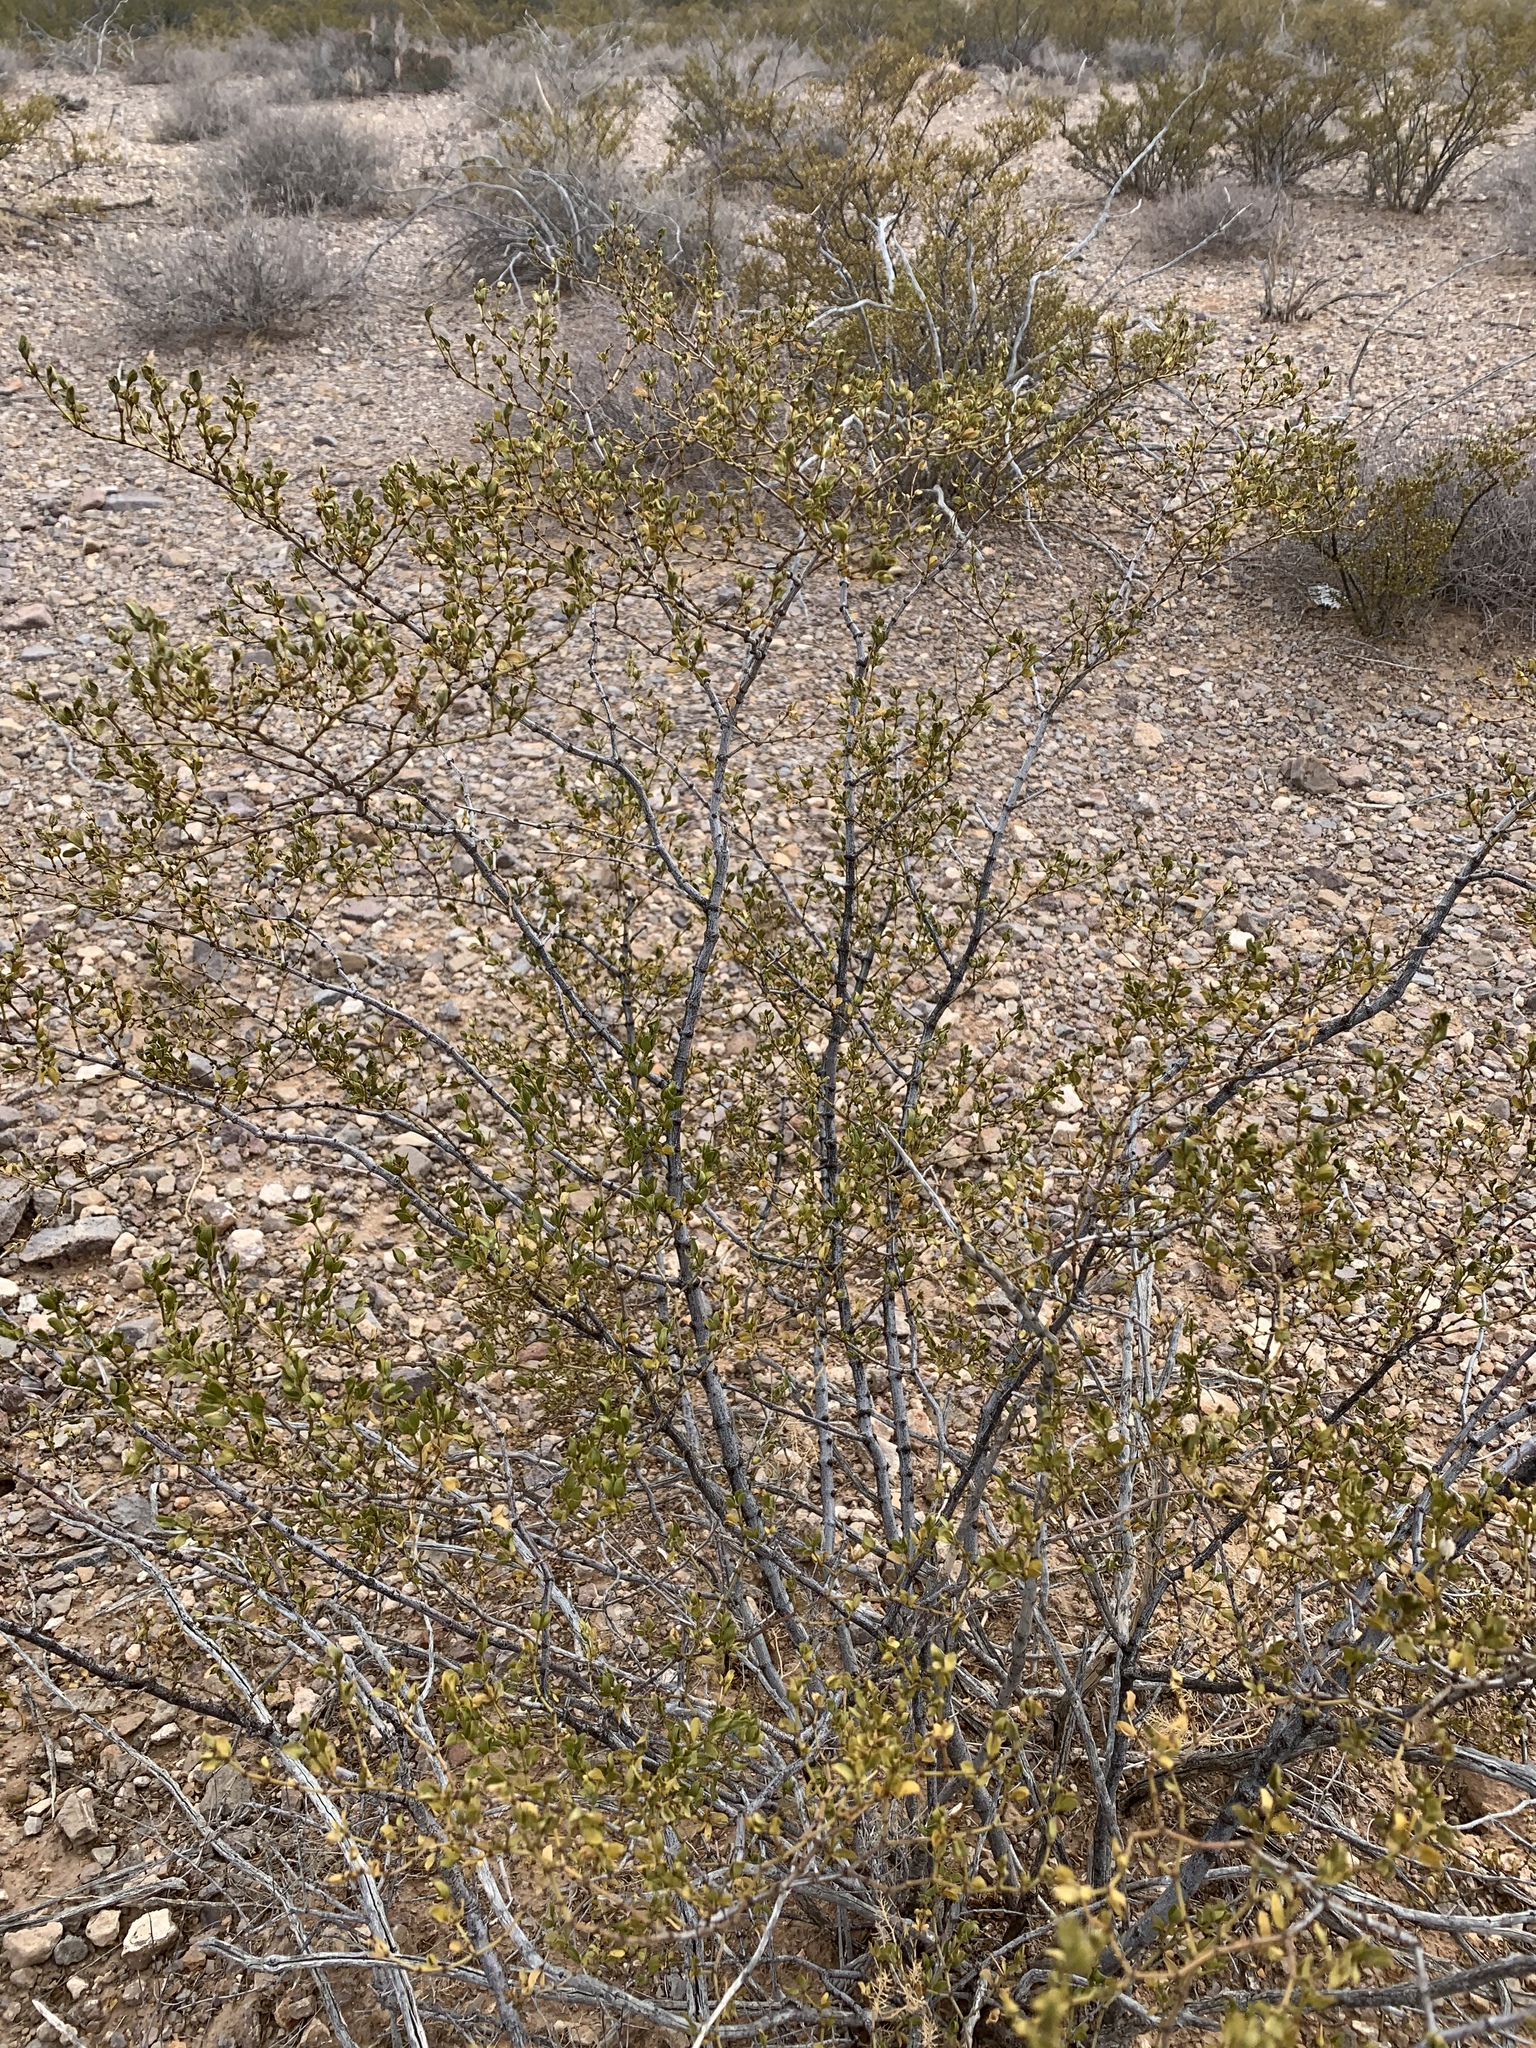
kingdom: Plantae
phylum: Tracheophyta
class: Magnoliopsida
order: Zygophyllales
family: Zygophyllaceae
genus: Larrea
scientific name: Larrea tridentata
